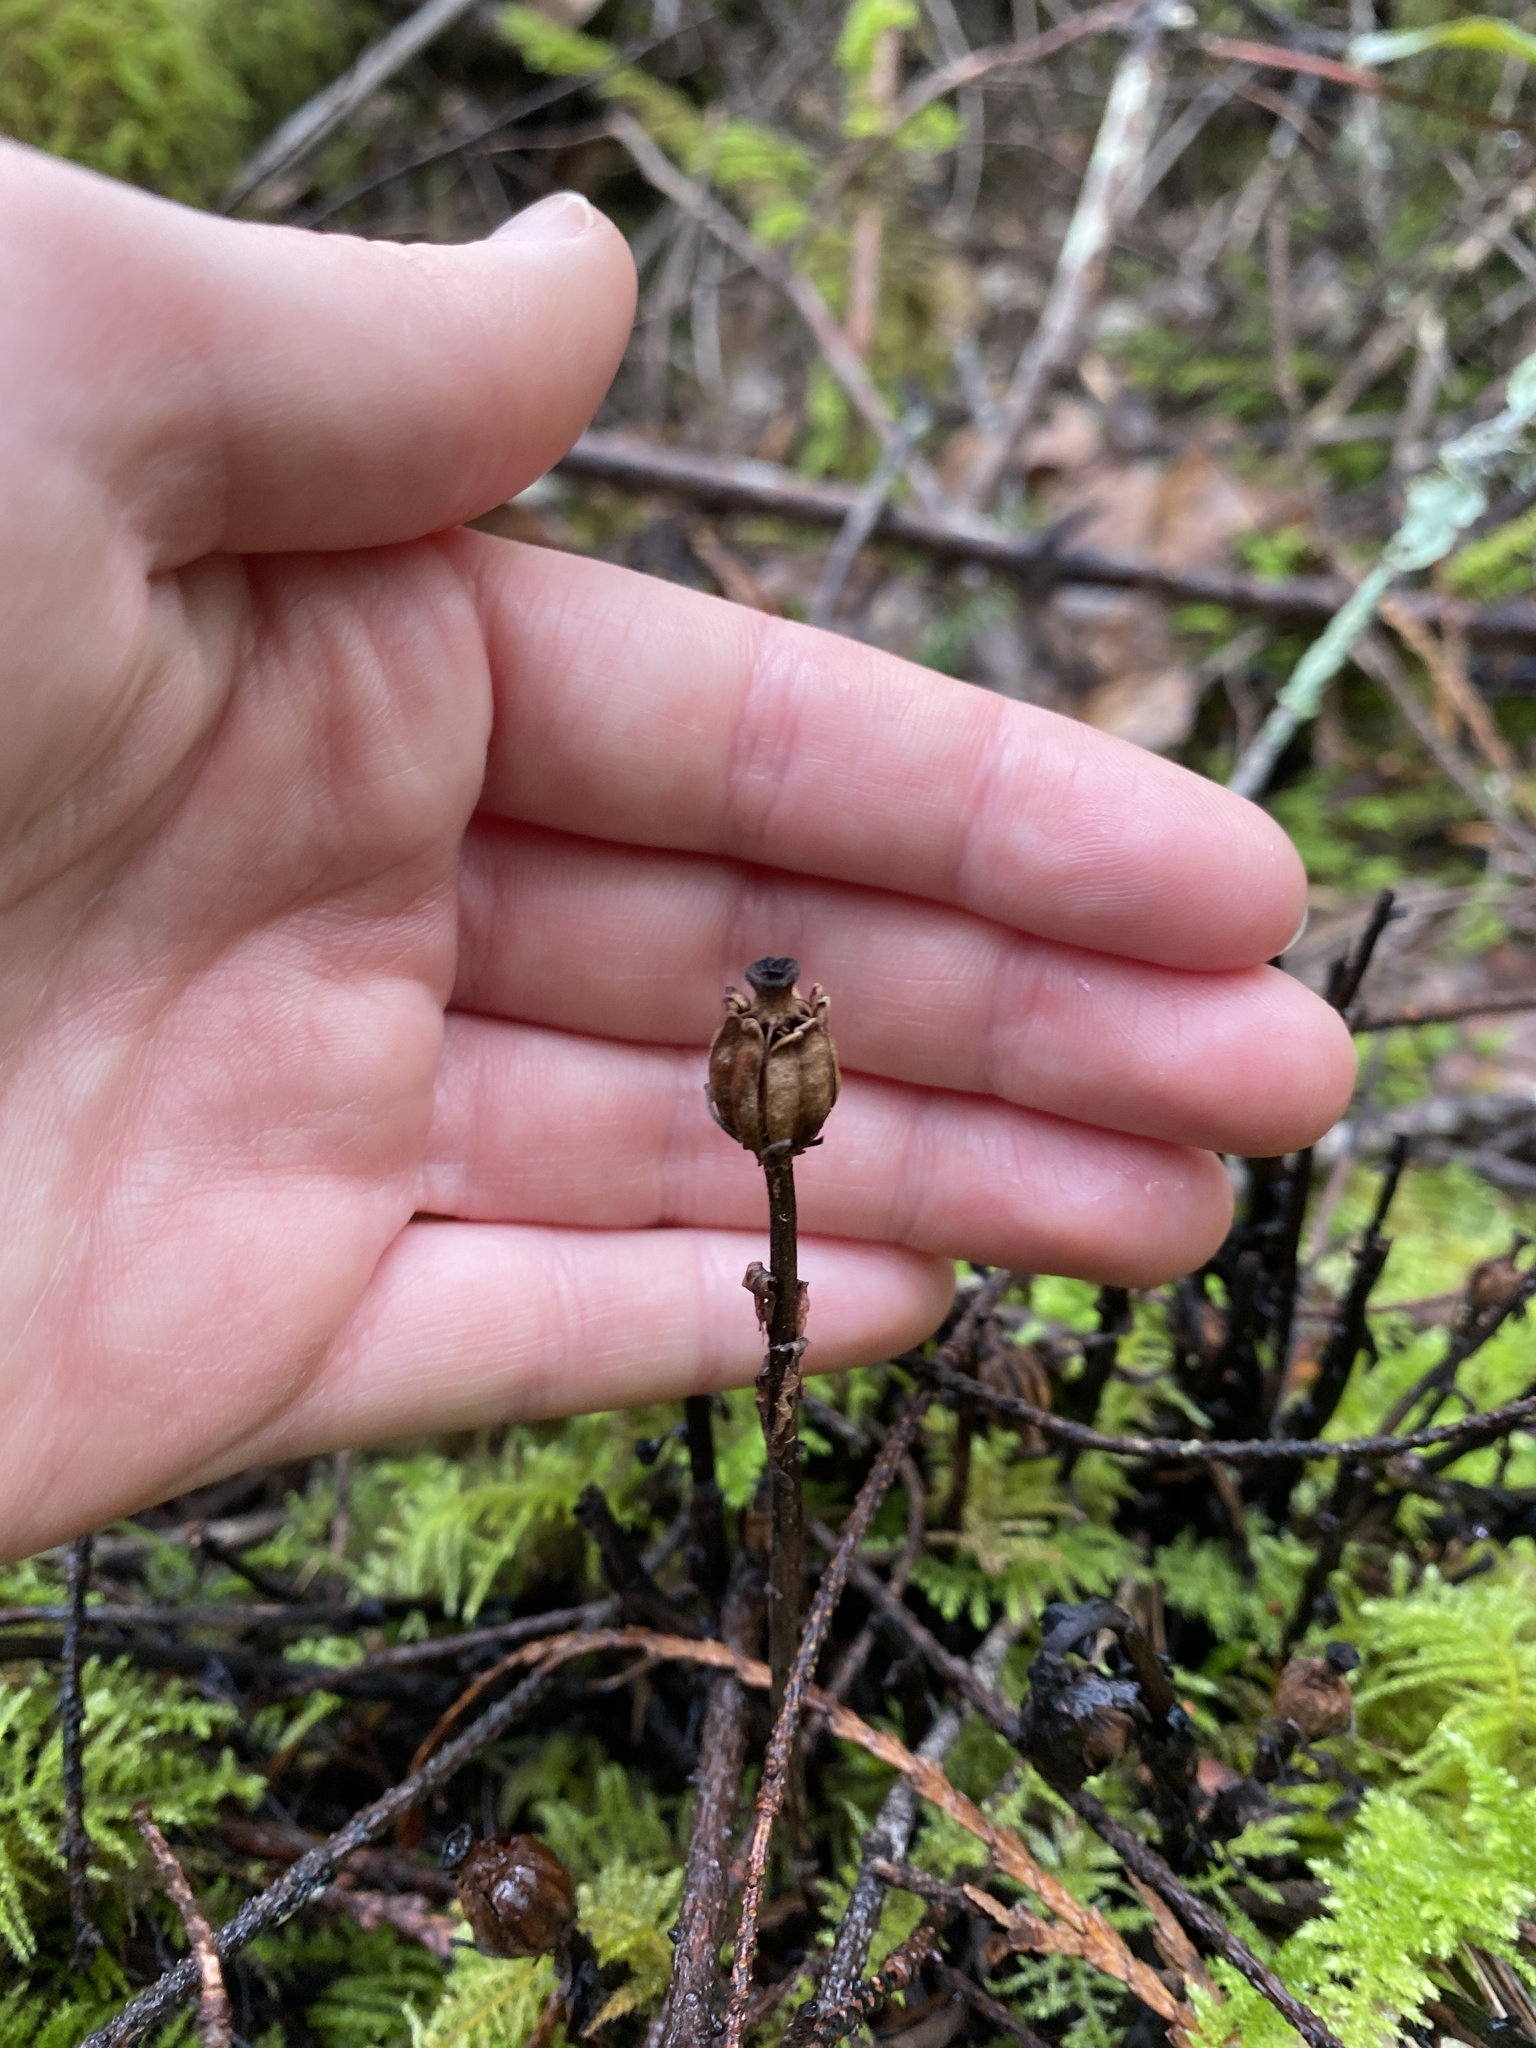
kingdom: Plantae
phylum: Tracheophyta
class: Magnoliopsida
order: Ericales
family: Ericaceae
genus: Monotropa
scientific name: Monotropa uniflora
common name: Convulsion root
